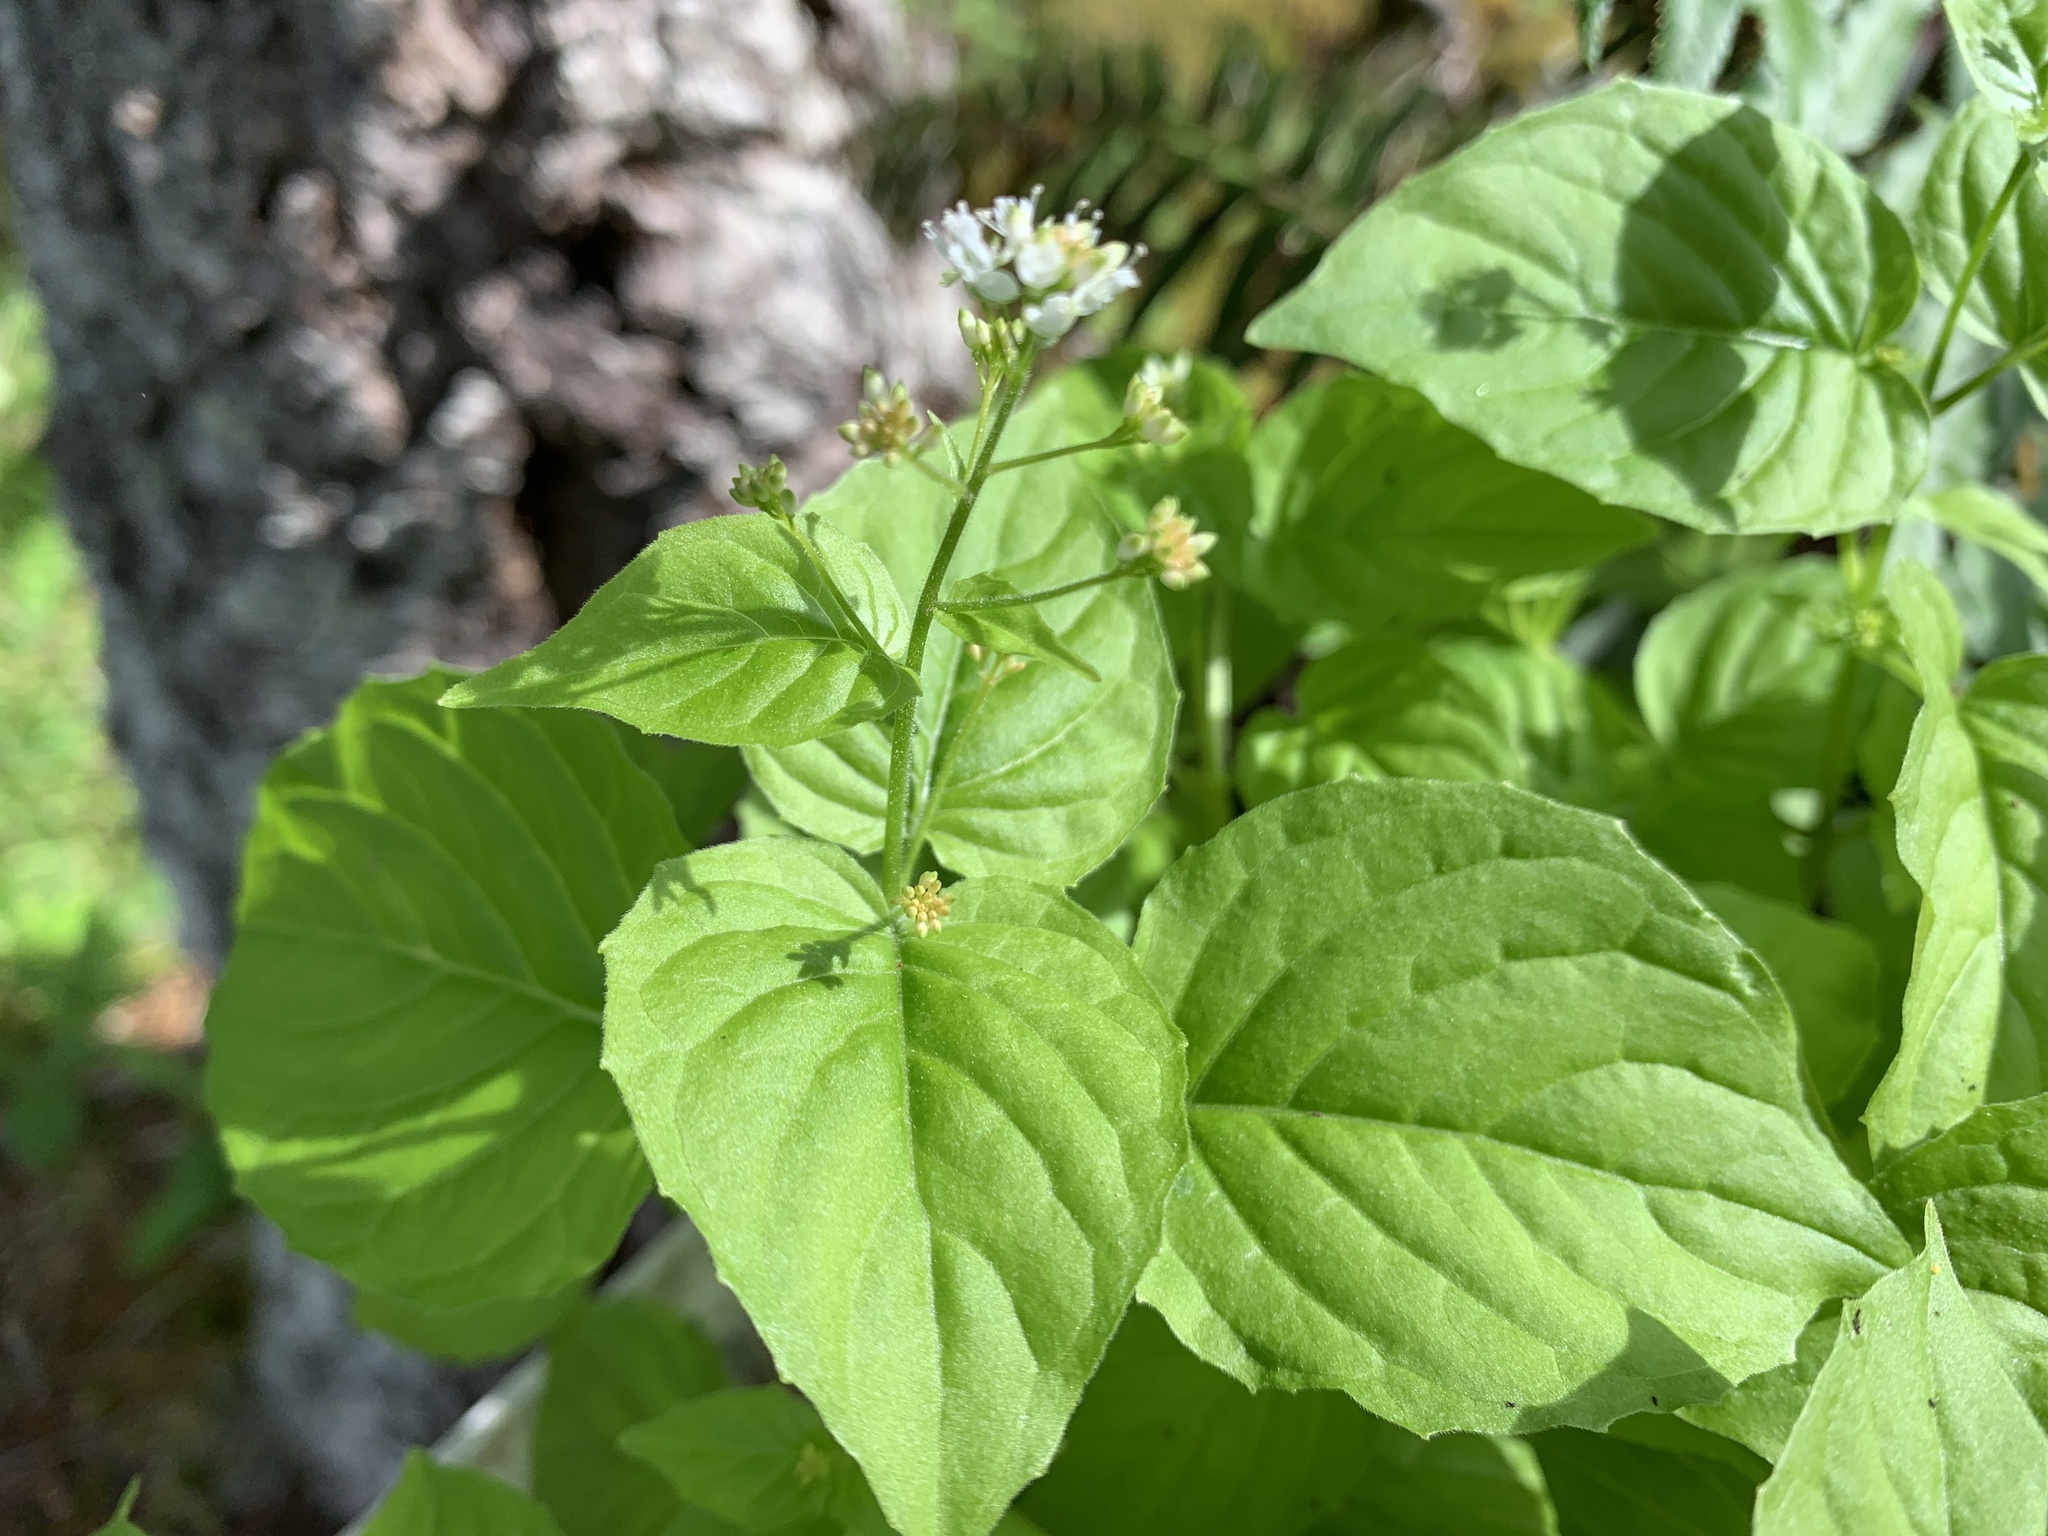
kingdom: Plantae
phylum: Tracheophyta
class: Magnoliopsida
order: Myrtales
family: Onagraceae
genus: Circaea
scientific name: Circaea alpina
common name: Alpine enchanter's-nightshade
